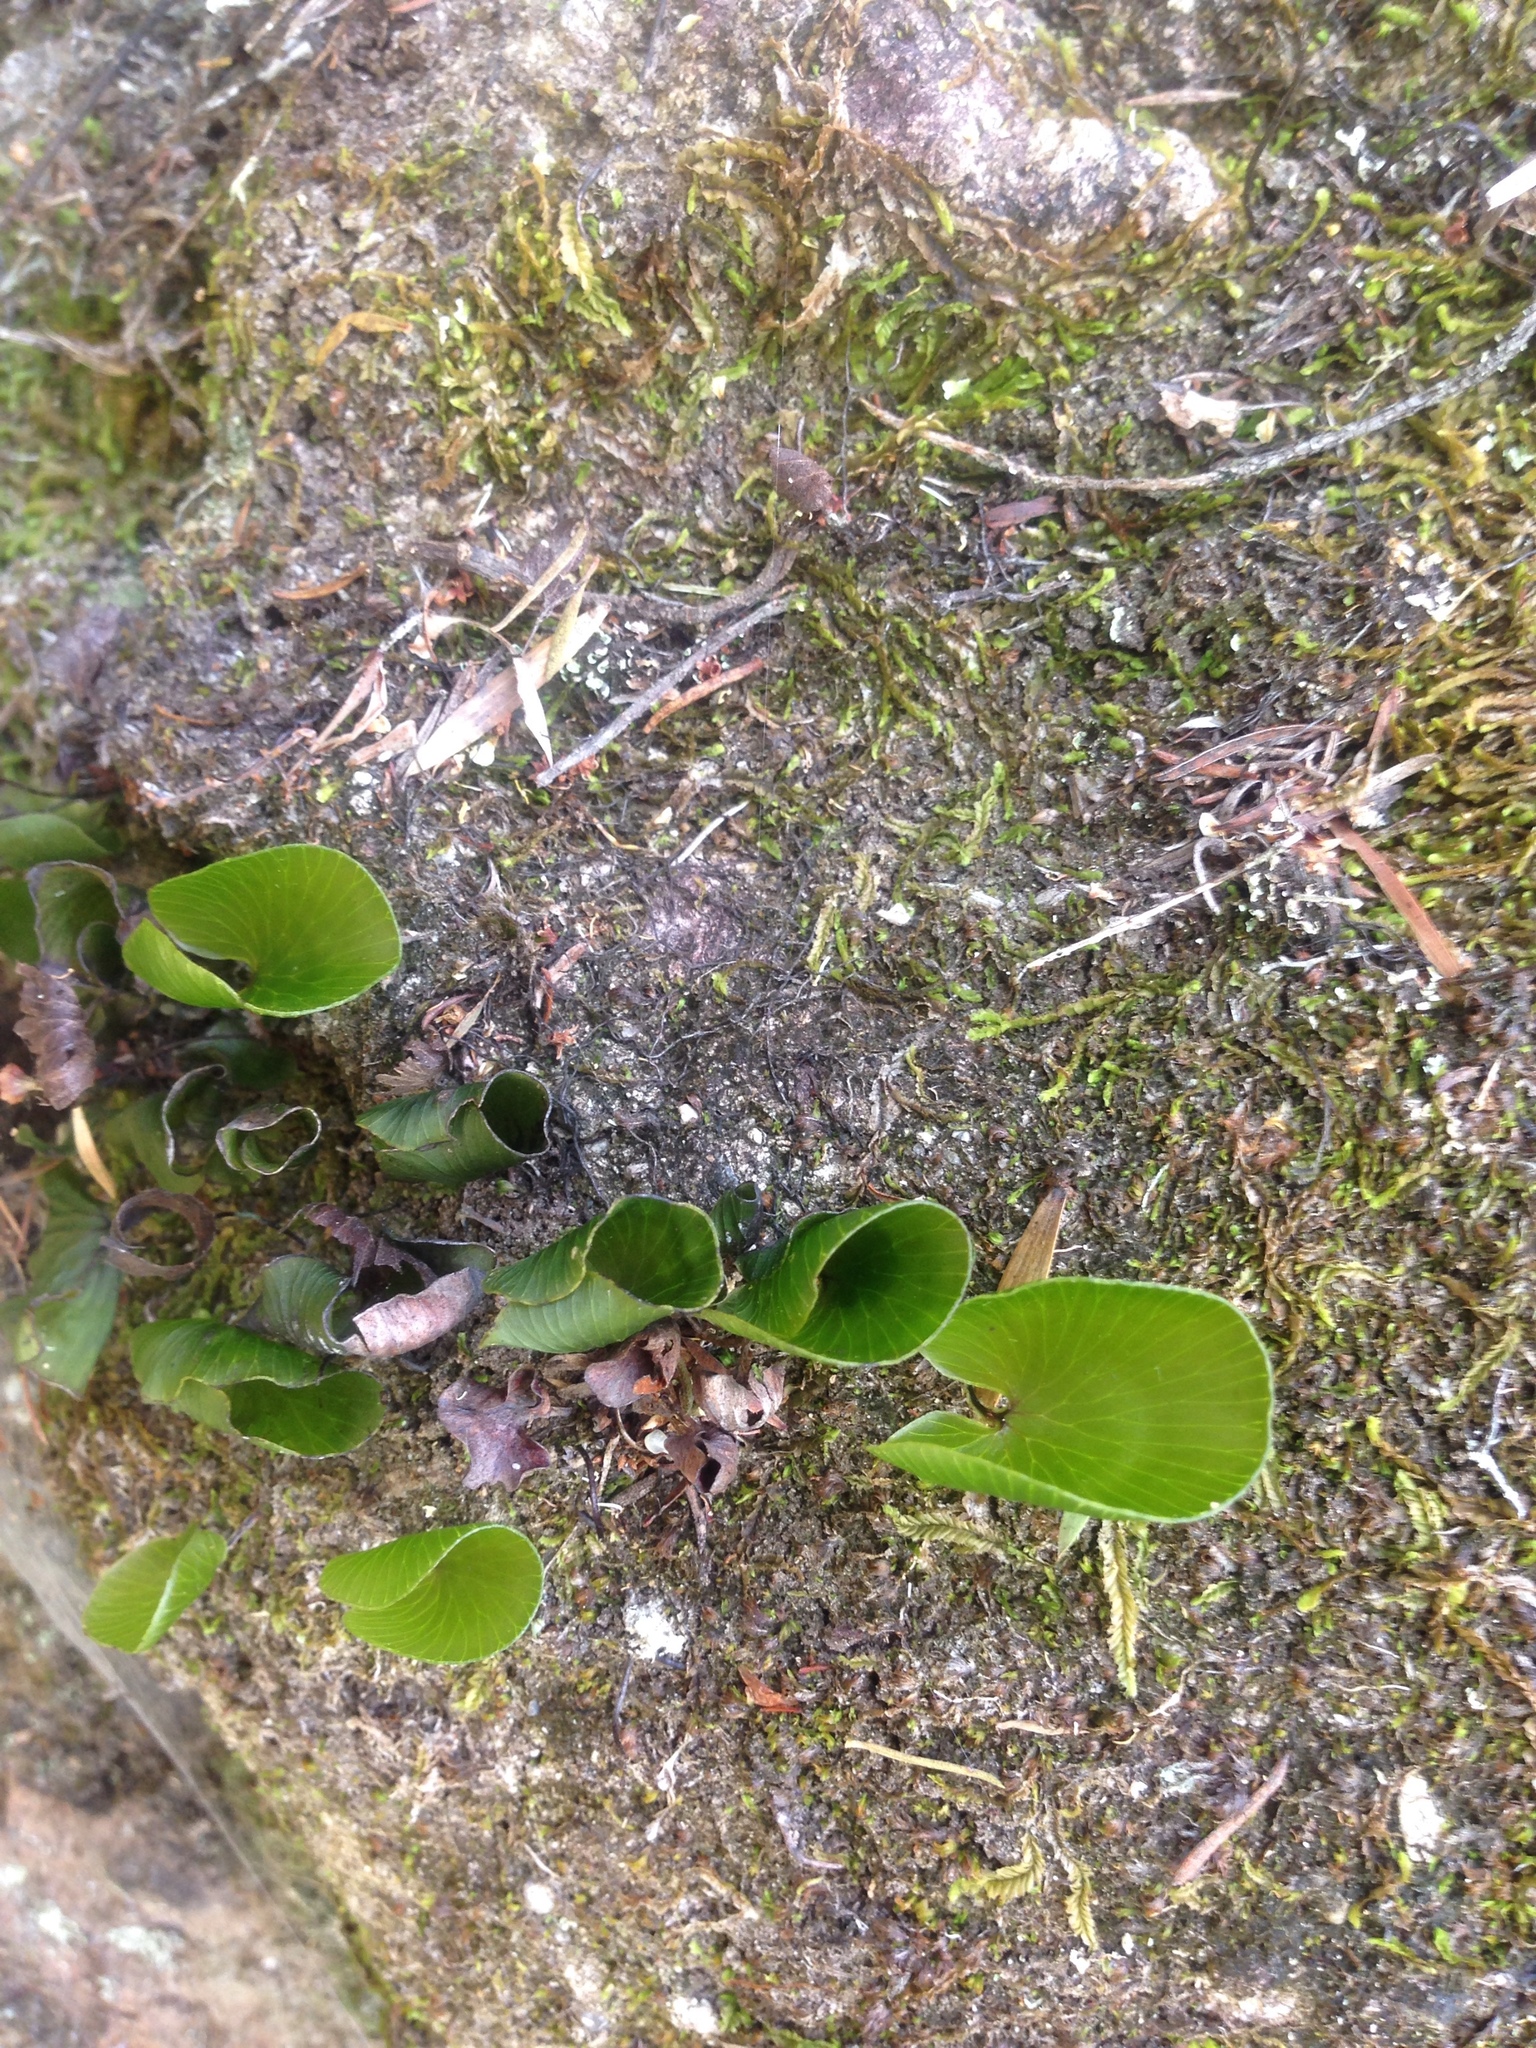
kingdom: Plantae
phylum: Tracheophyta
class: Polypodiopsida
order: Hymenophyllales
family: Hymenophyllaceae
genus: Hymenophyllum
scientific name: Hymenophyllum nephrophyllum
